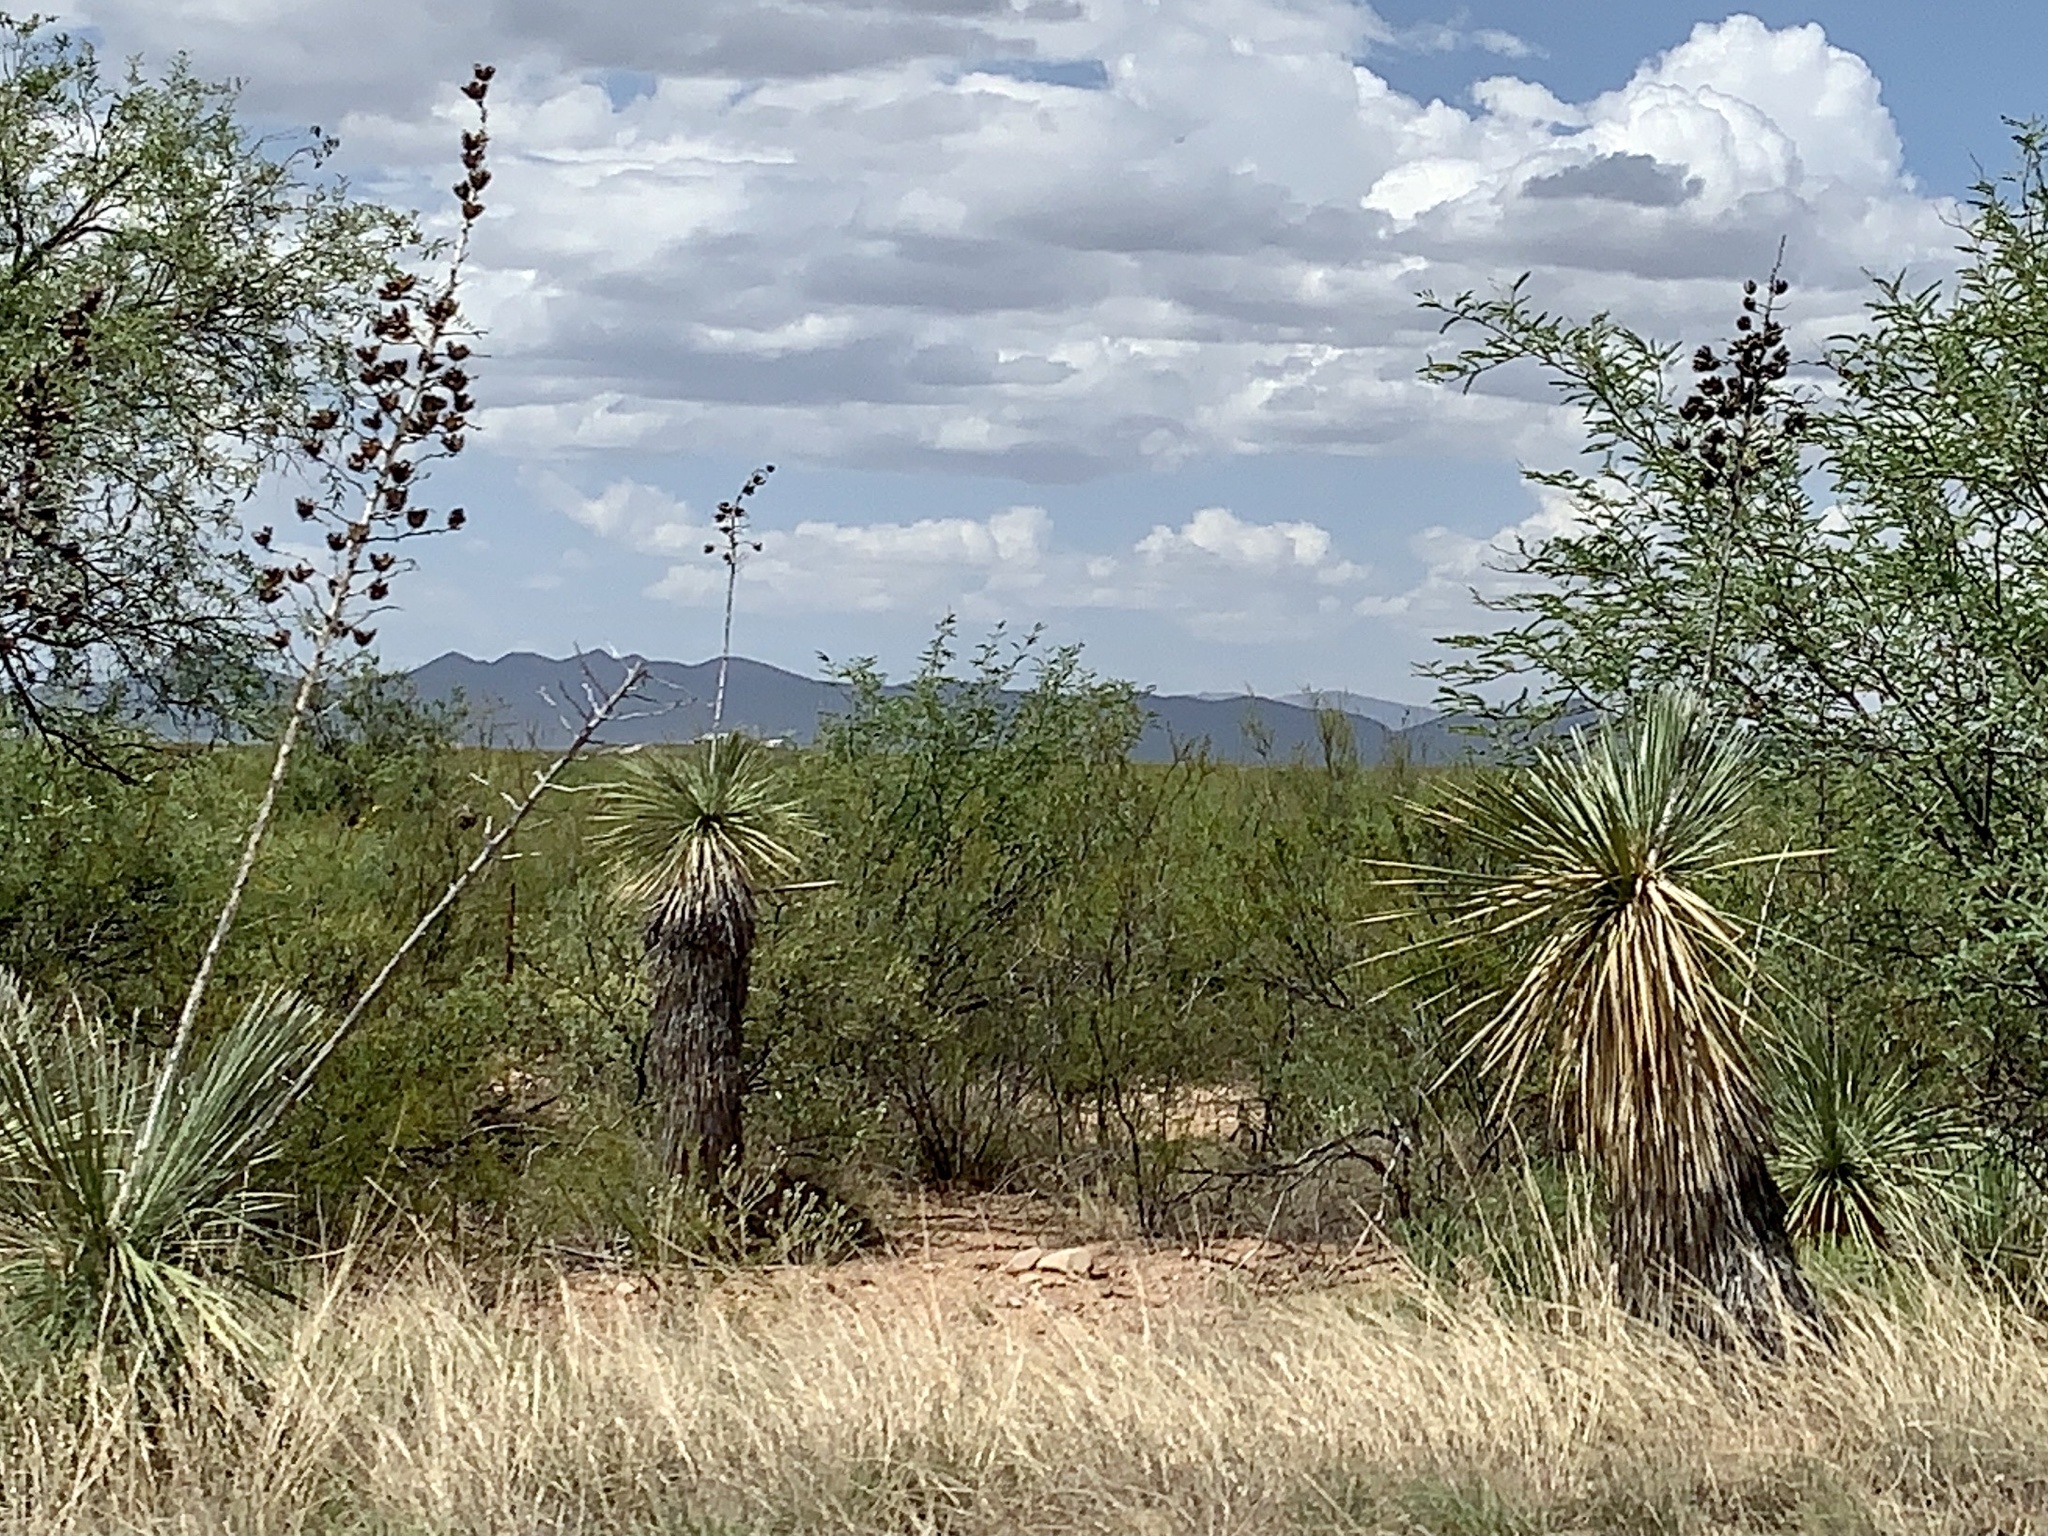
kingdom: Plantae
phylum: Tracheophyta
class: Liliopsida
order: Asparagales
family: Asparagaceae
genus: Yucca
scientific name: Yucca elata
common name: Palmella
